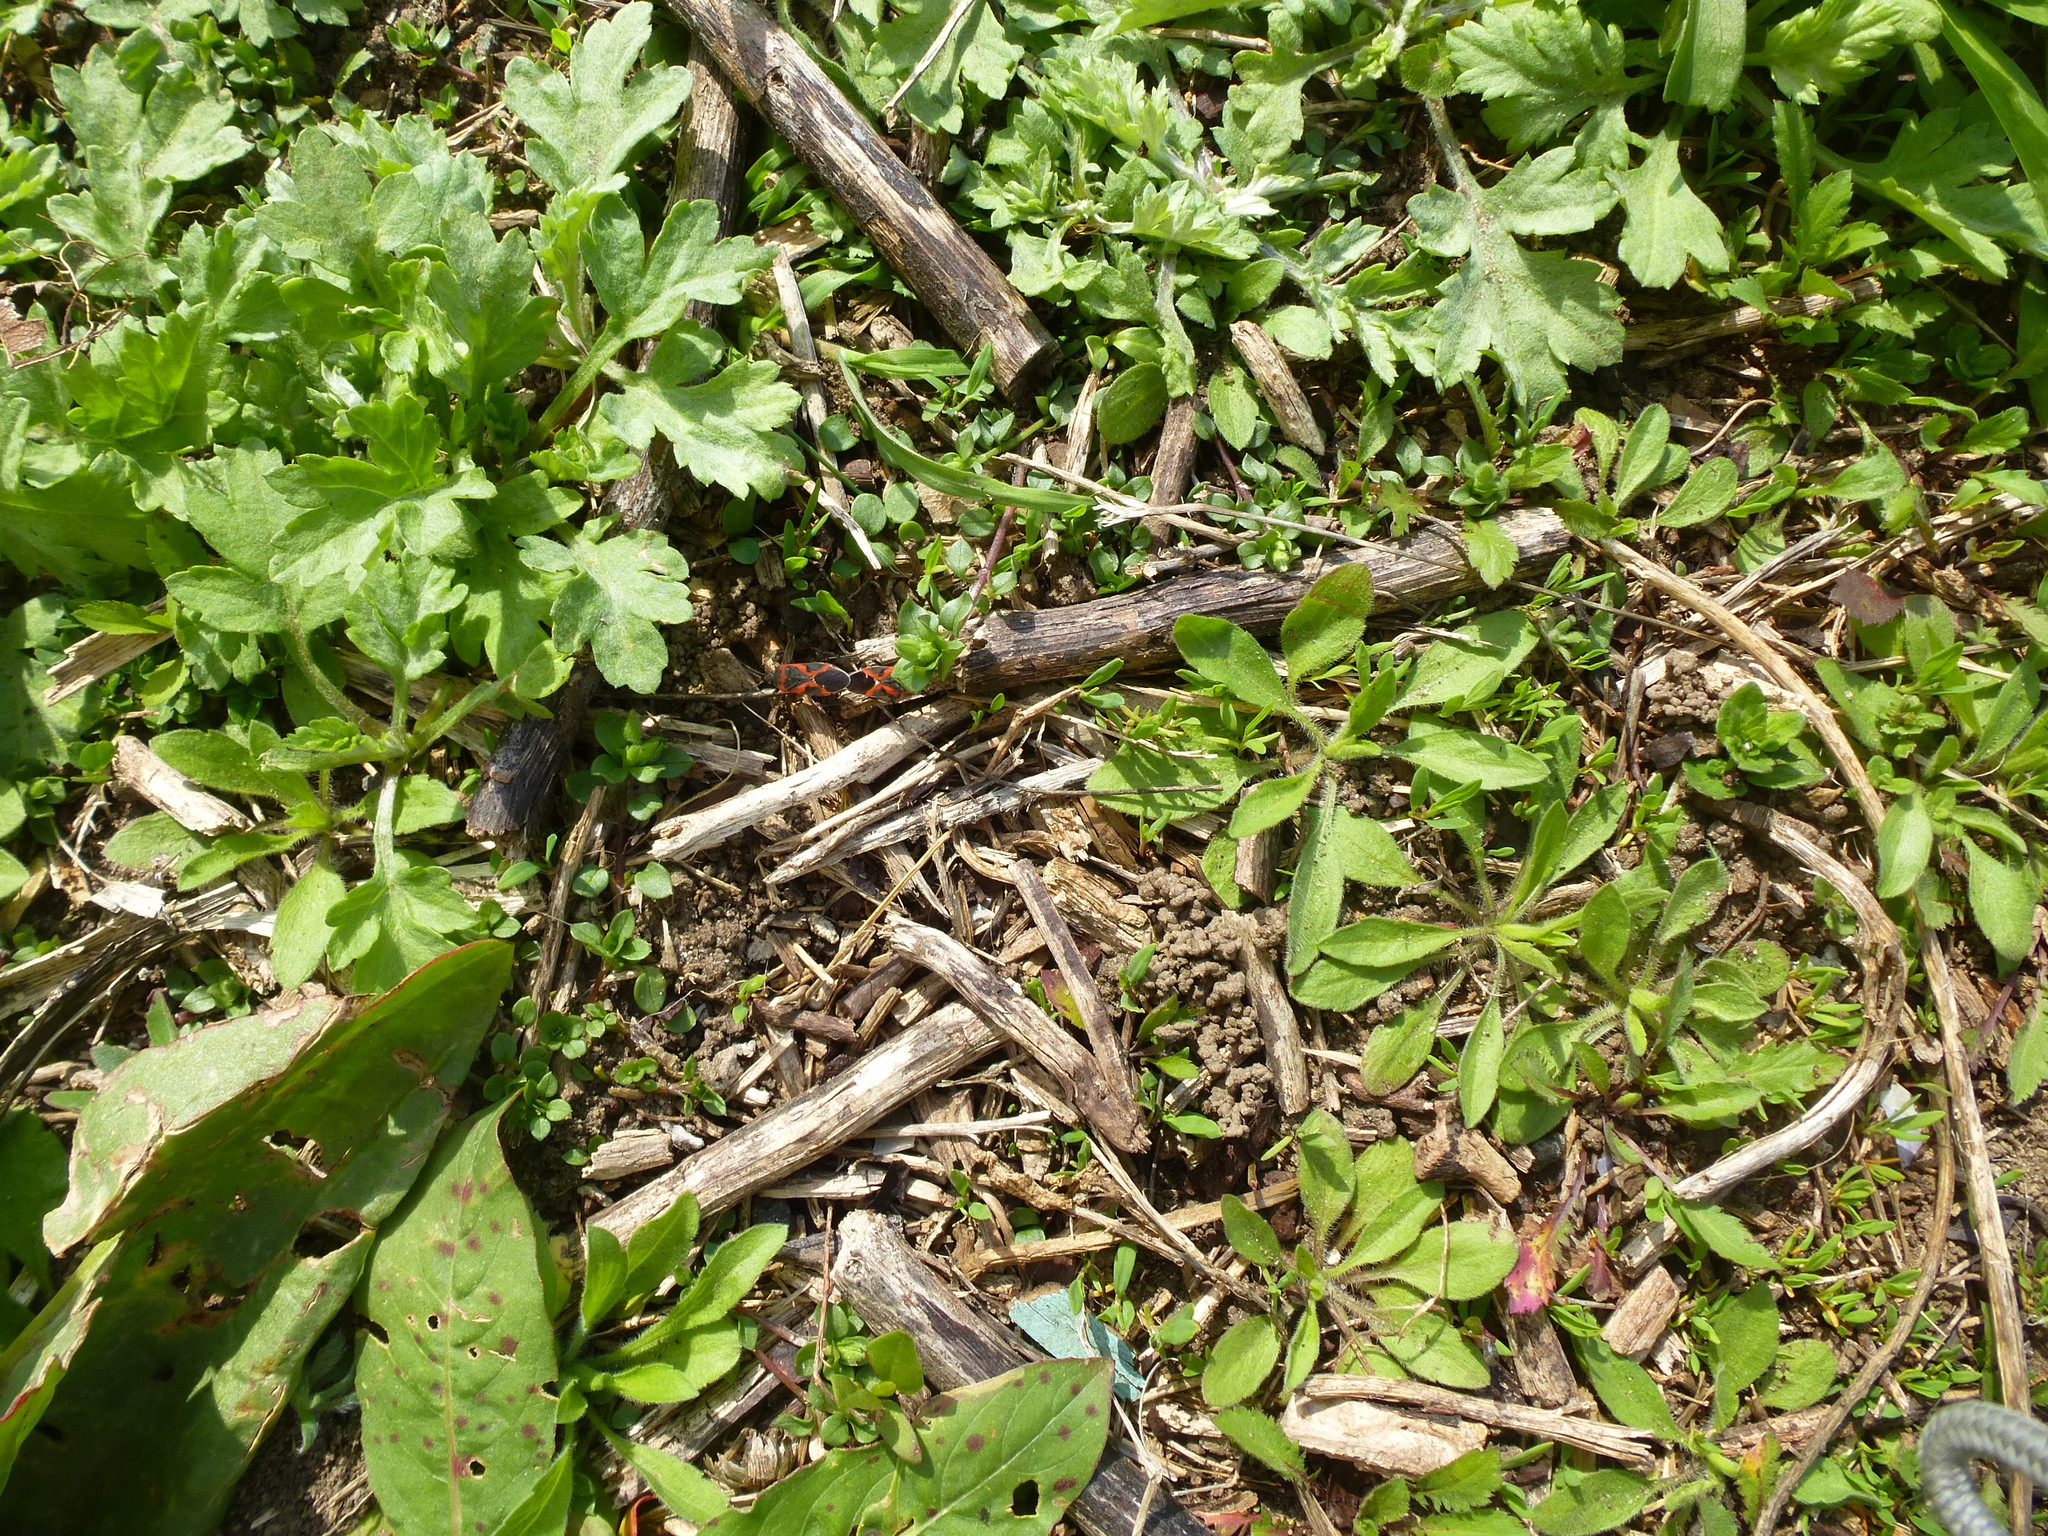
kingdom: Animalia
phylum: Arthropoda
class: Insecta
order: Hemiptera
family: Lygaeidae
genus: Lygaeus
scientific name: Lygaeus kalmii
